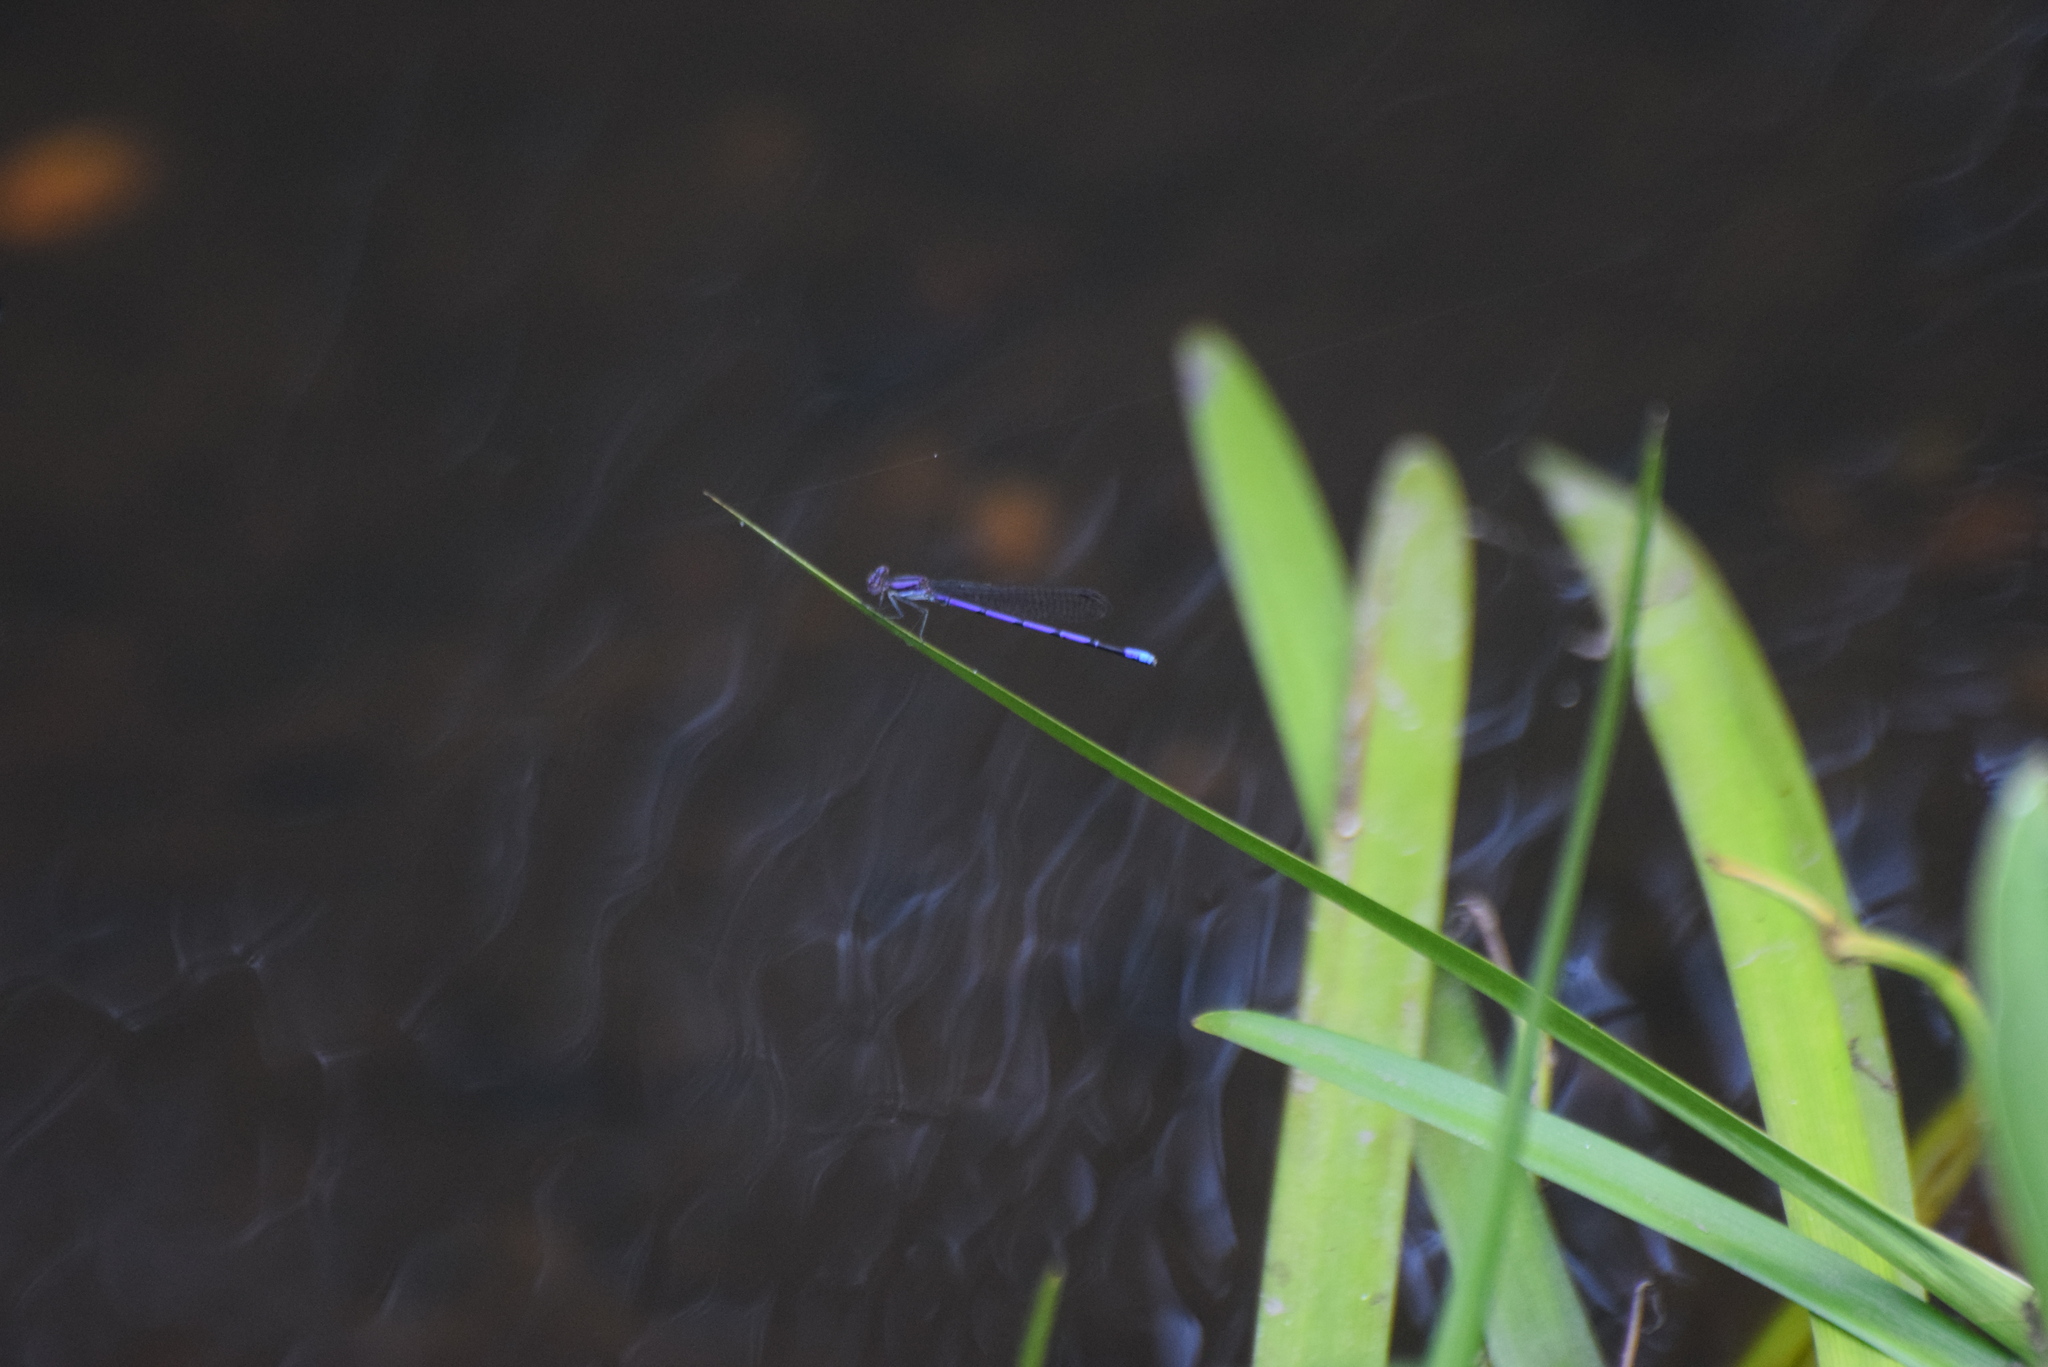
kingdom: Animalia
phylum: Arthropoda
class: Insecta
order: Odonata
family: Coenagrionidae
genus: Argia
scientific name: Argia fumipennis
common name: Variable dancer
